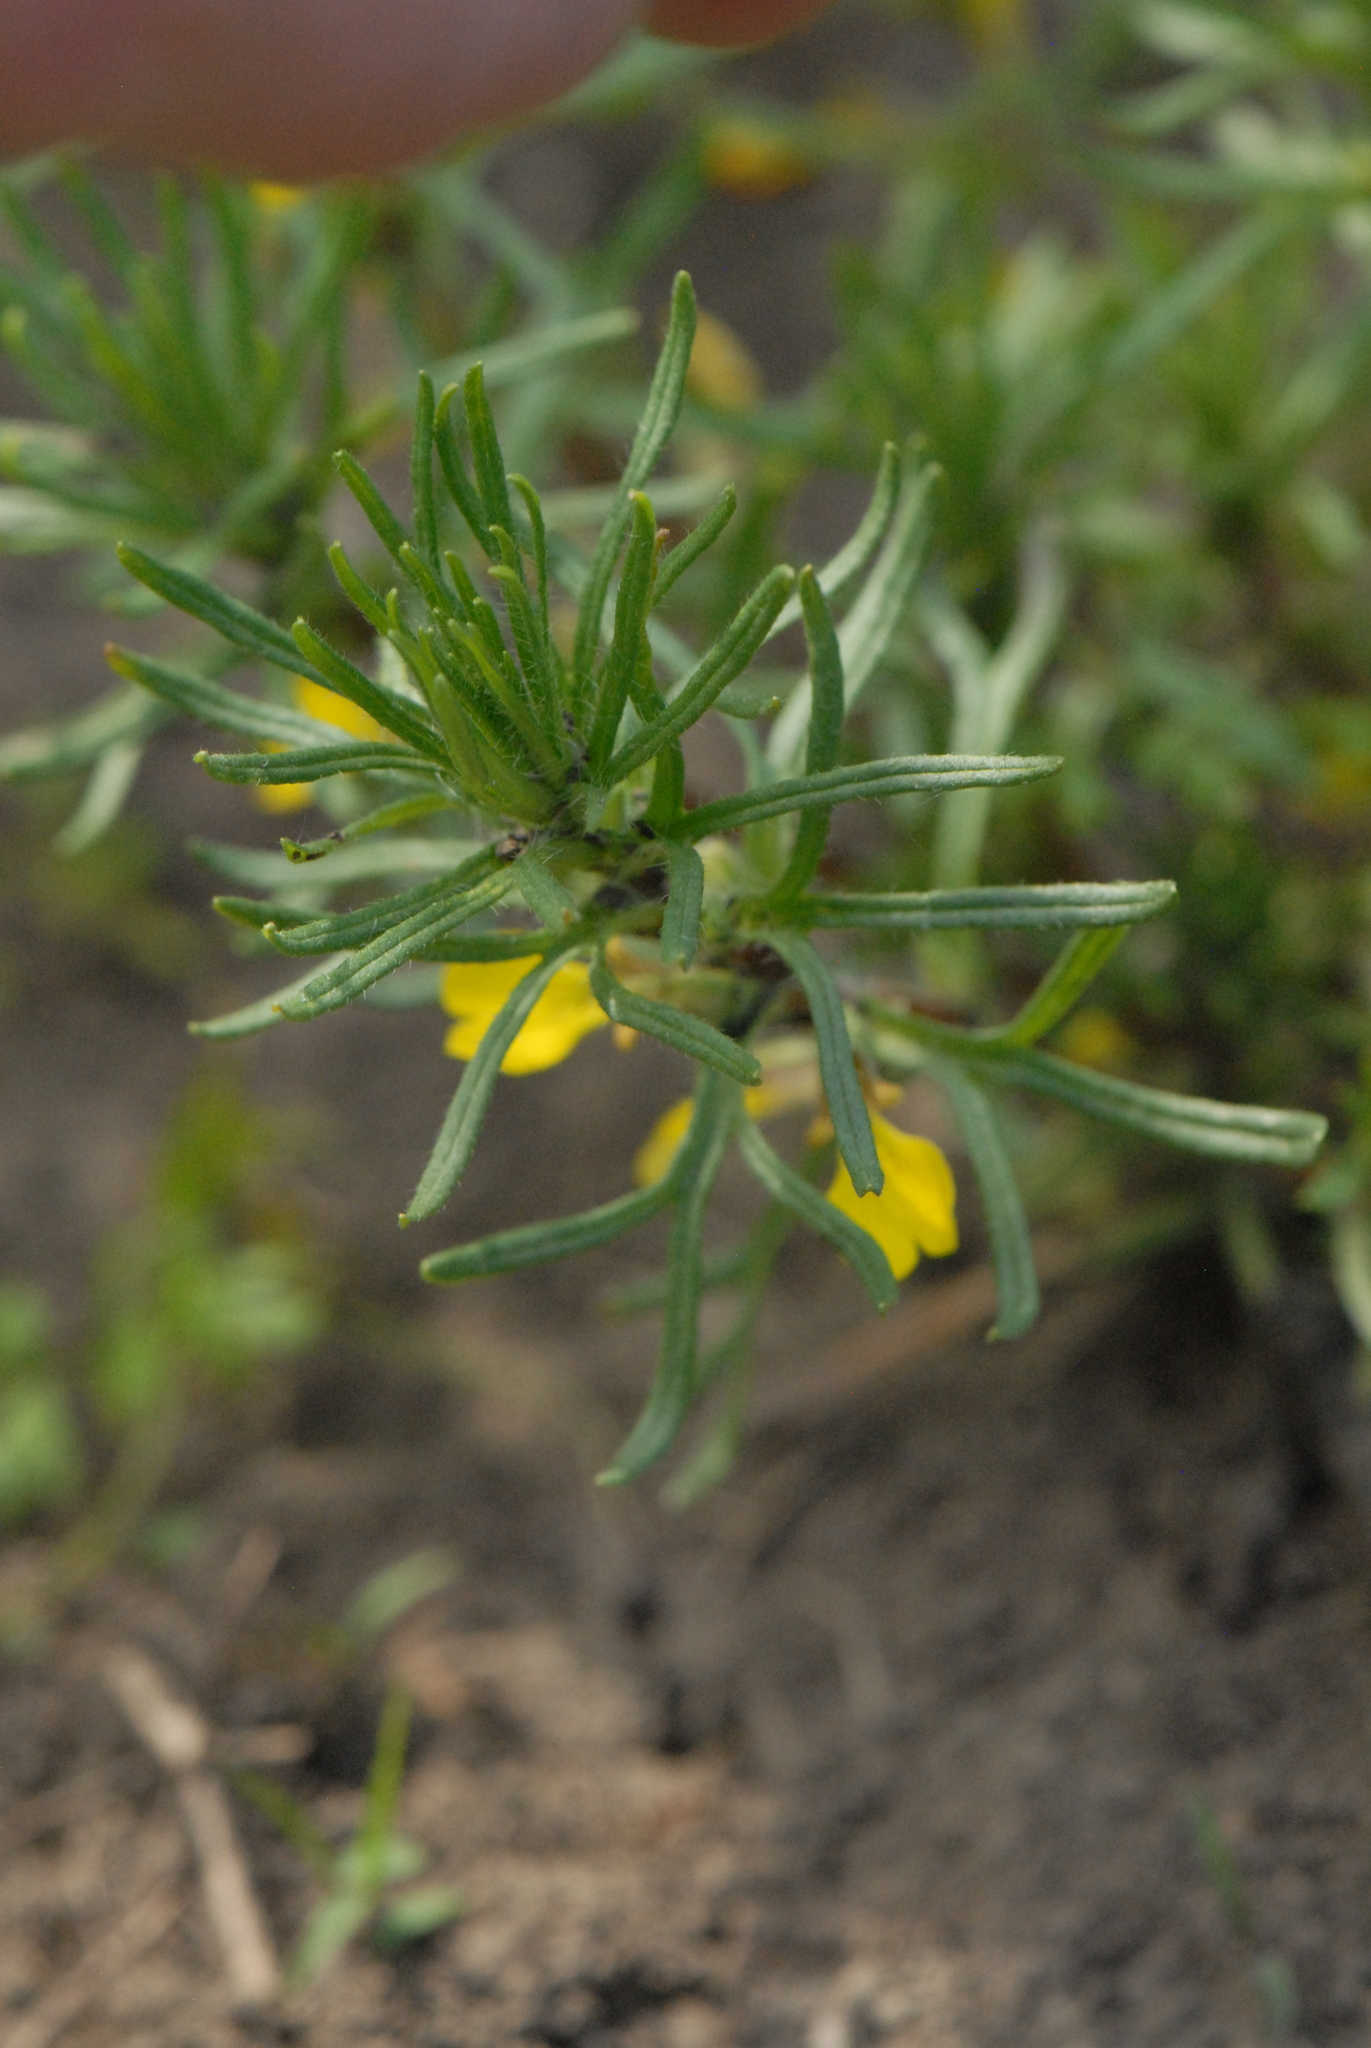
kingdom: Plantae
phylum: Tracheophyta
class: Magnoliopsida
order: Lamiales
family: Lamiaceae
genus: Ajuga
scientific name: Ajuga chamaepitys
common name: Ground-pine
